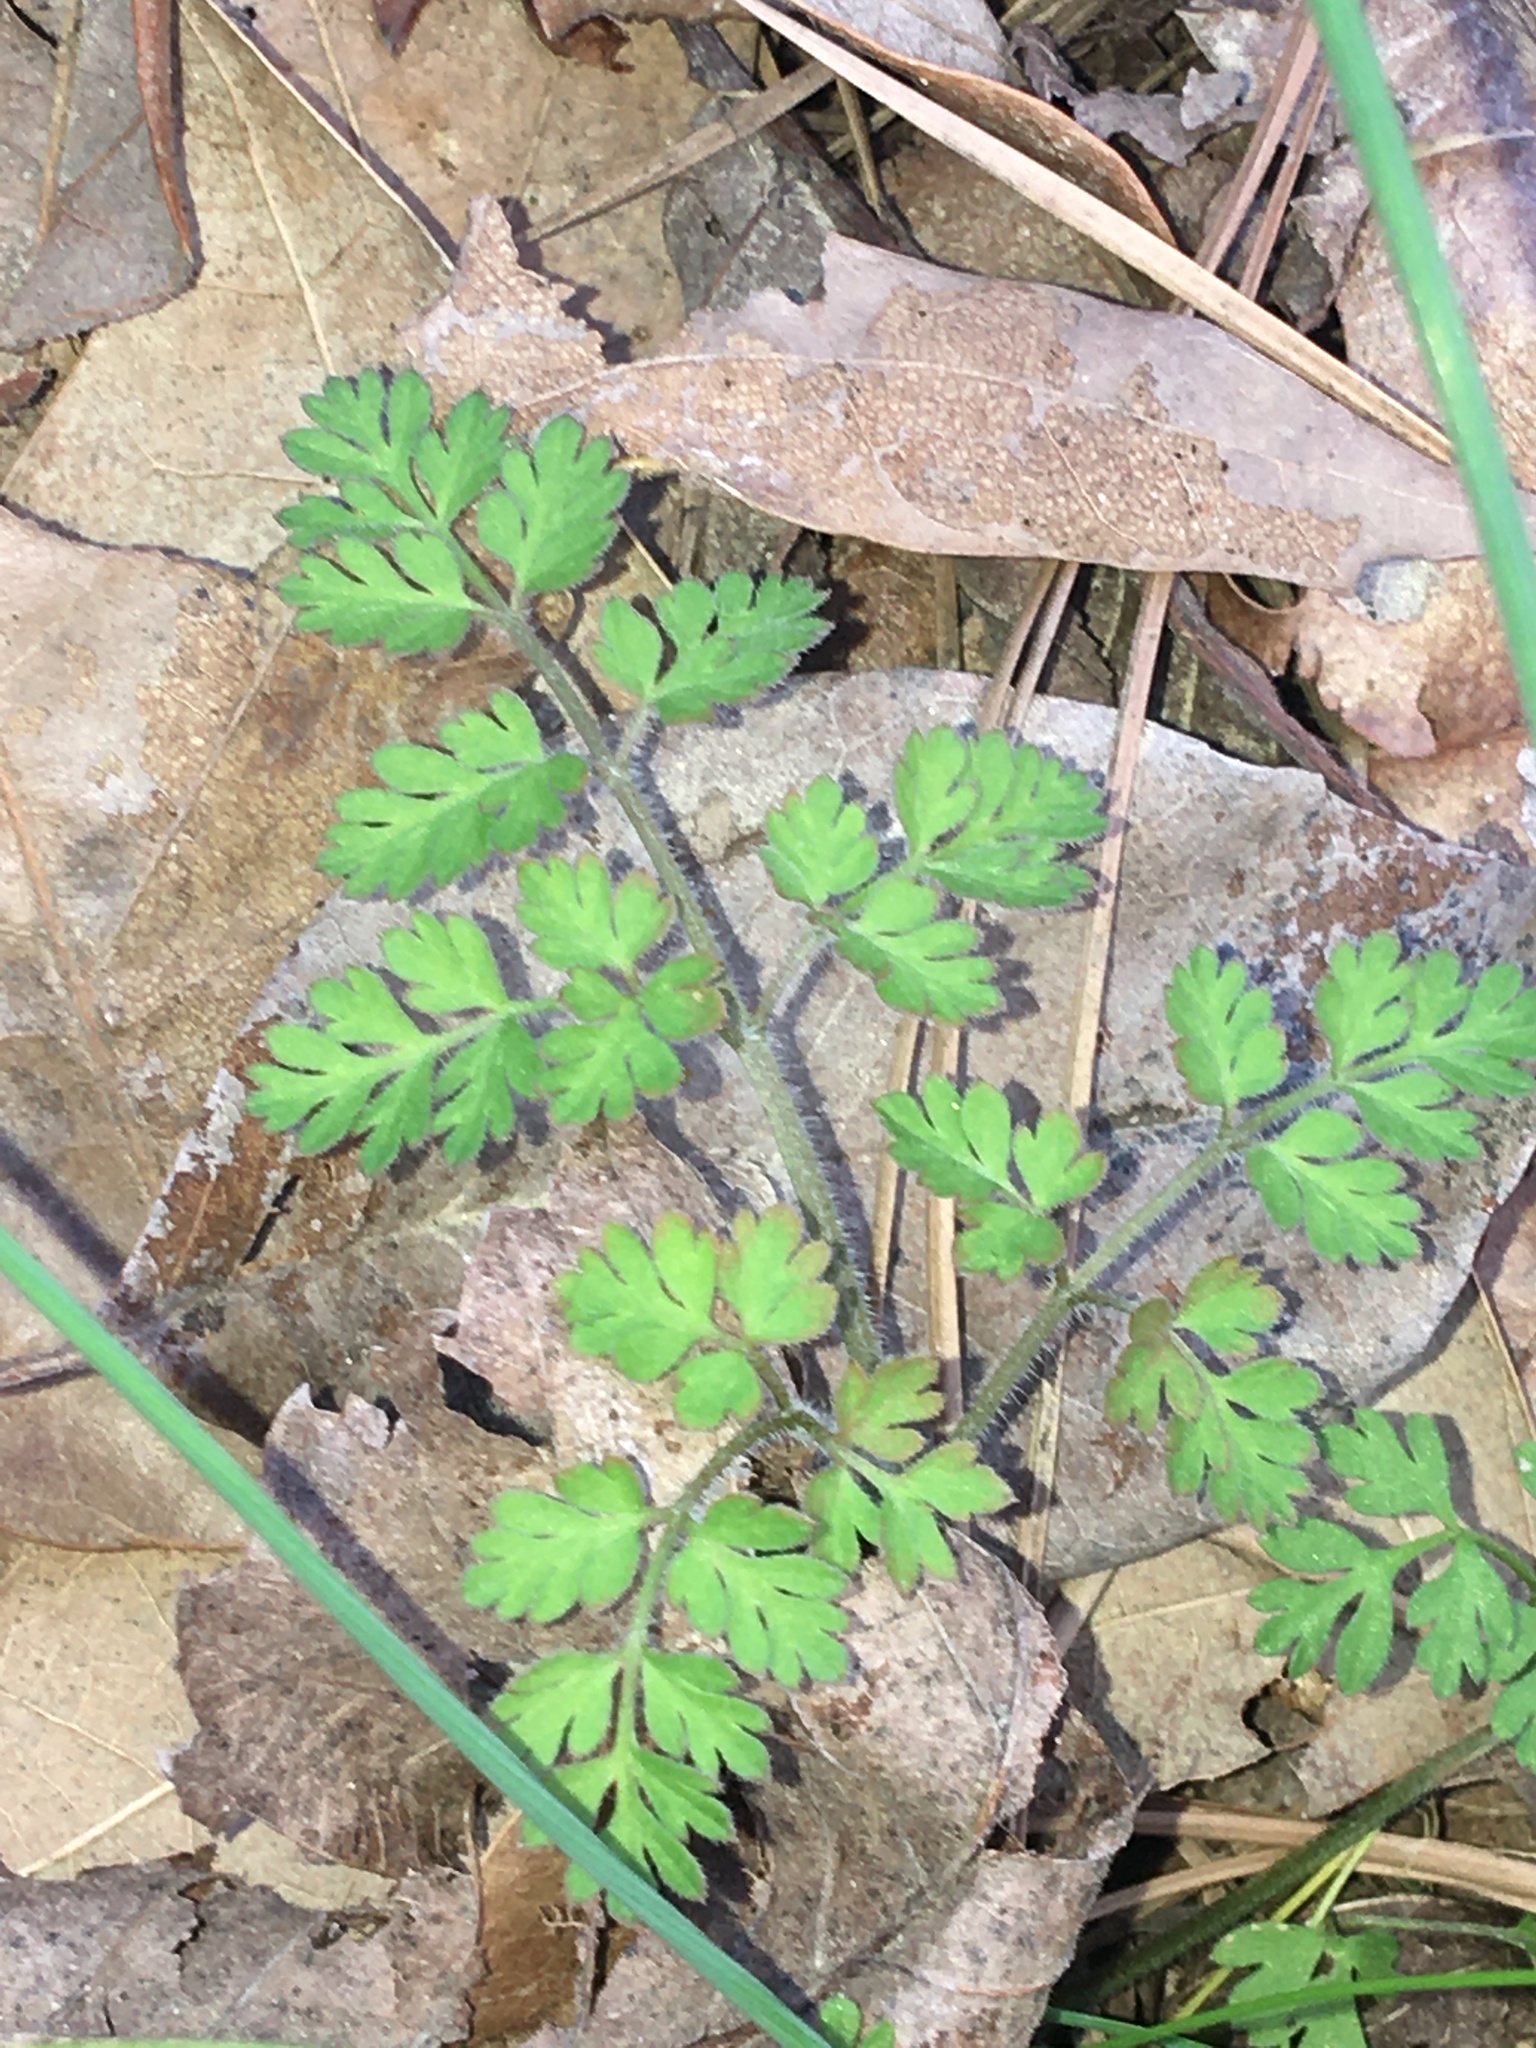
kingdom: Plantae
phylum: Tracheophyta
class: Magnoliopsida
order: Apiales
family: Apiaceae
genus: Chaerophyllum
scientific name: Chaerophyllum tainturieri
